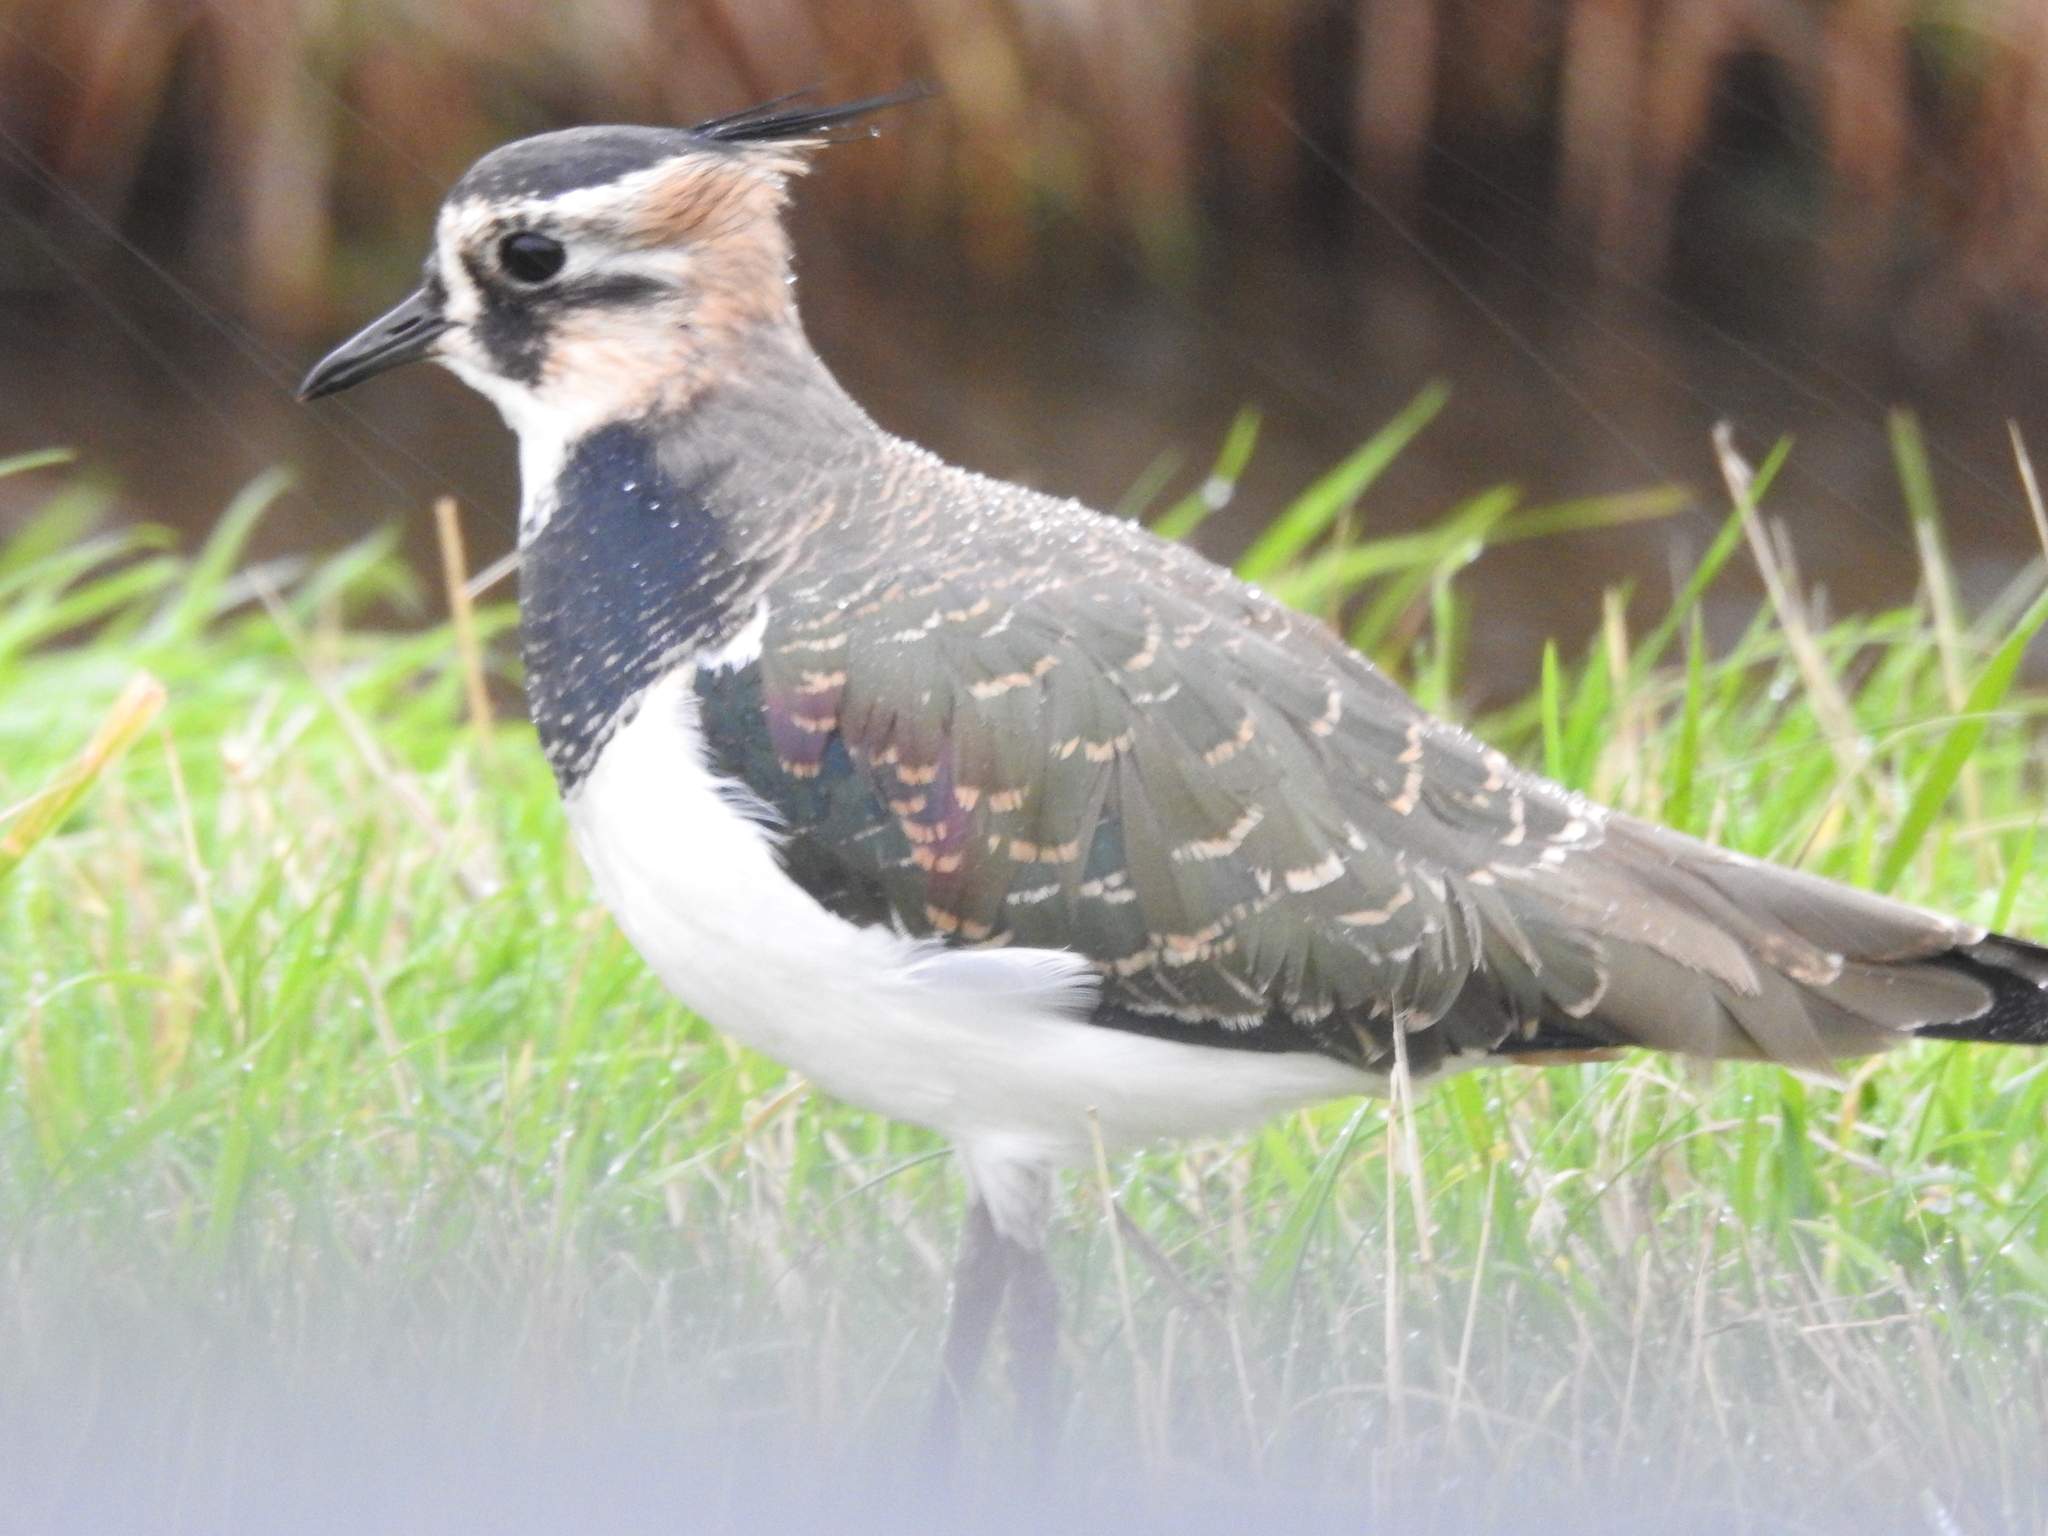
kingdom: Animalia
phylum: Chordata
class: Aves
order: Charadriiformes
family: Charadriidae
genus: Vanellus
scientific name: Vanellus vanellus
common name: Northern lapwing
